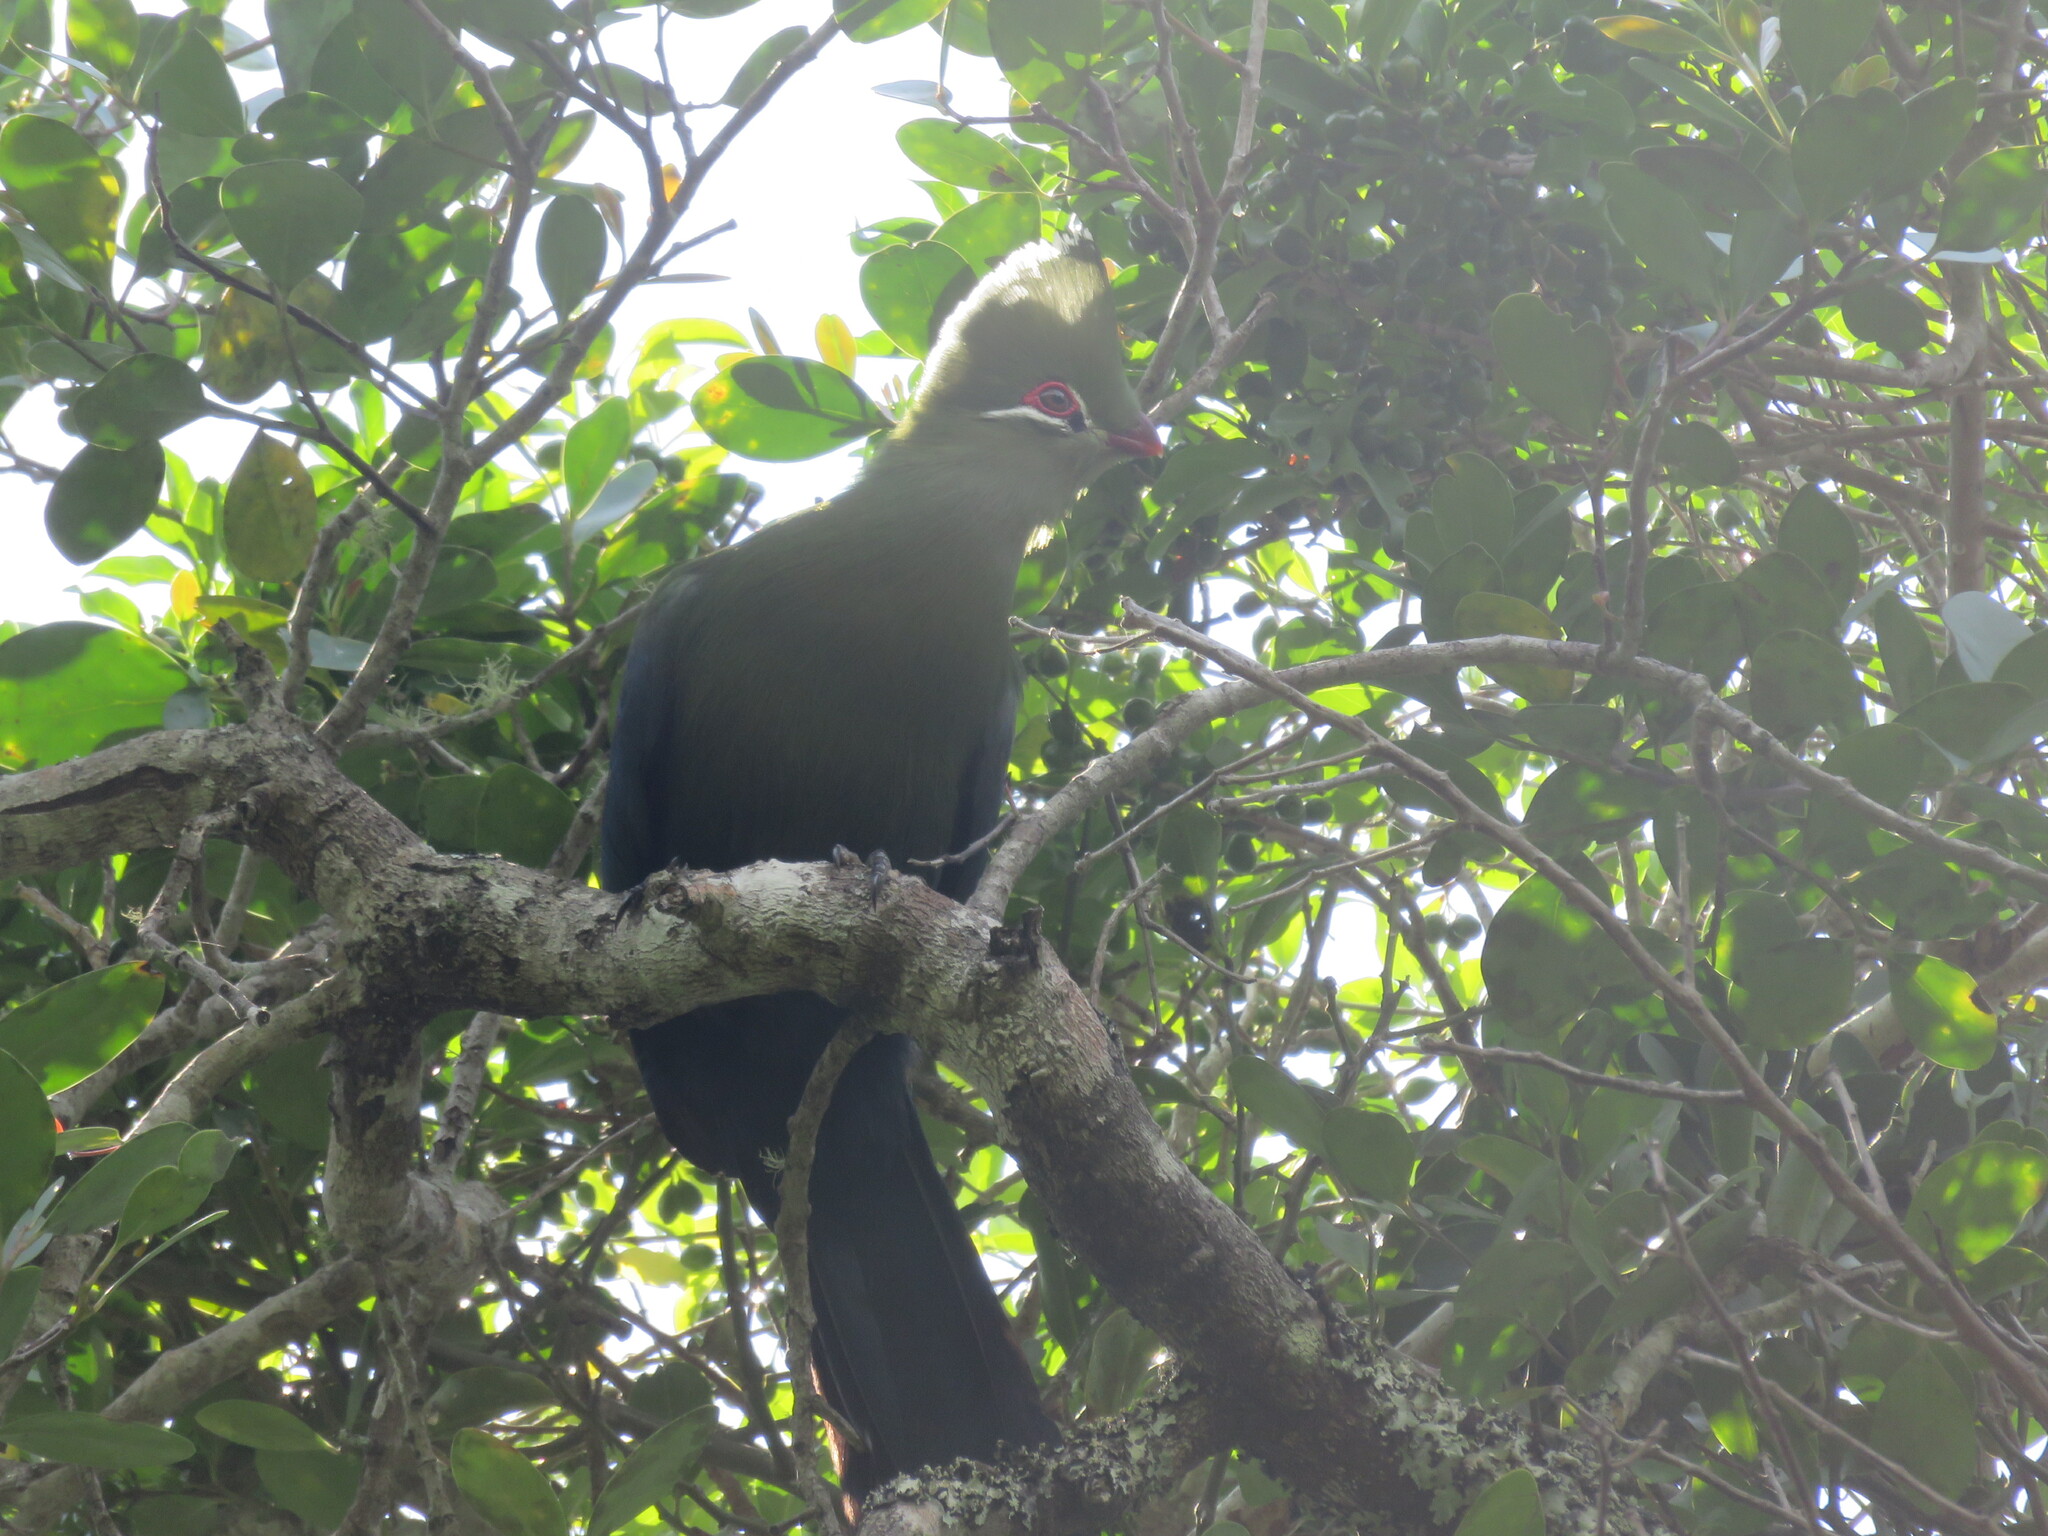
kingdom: Animalia
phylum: Chordata
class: Aves
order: Musophagiformes
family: Musophagidae
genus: Tauraco
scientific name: Tauraco corythaix
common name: Knysna turaco
